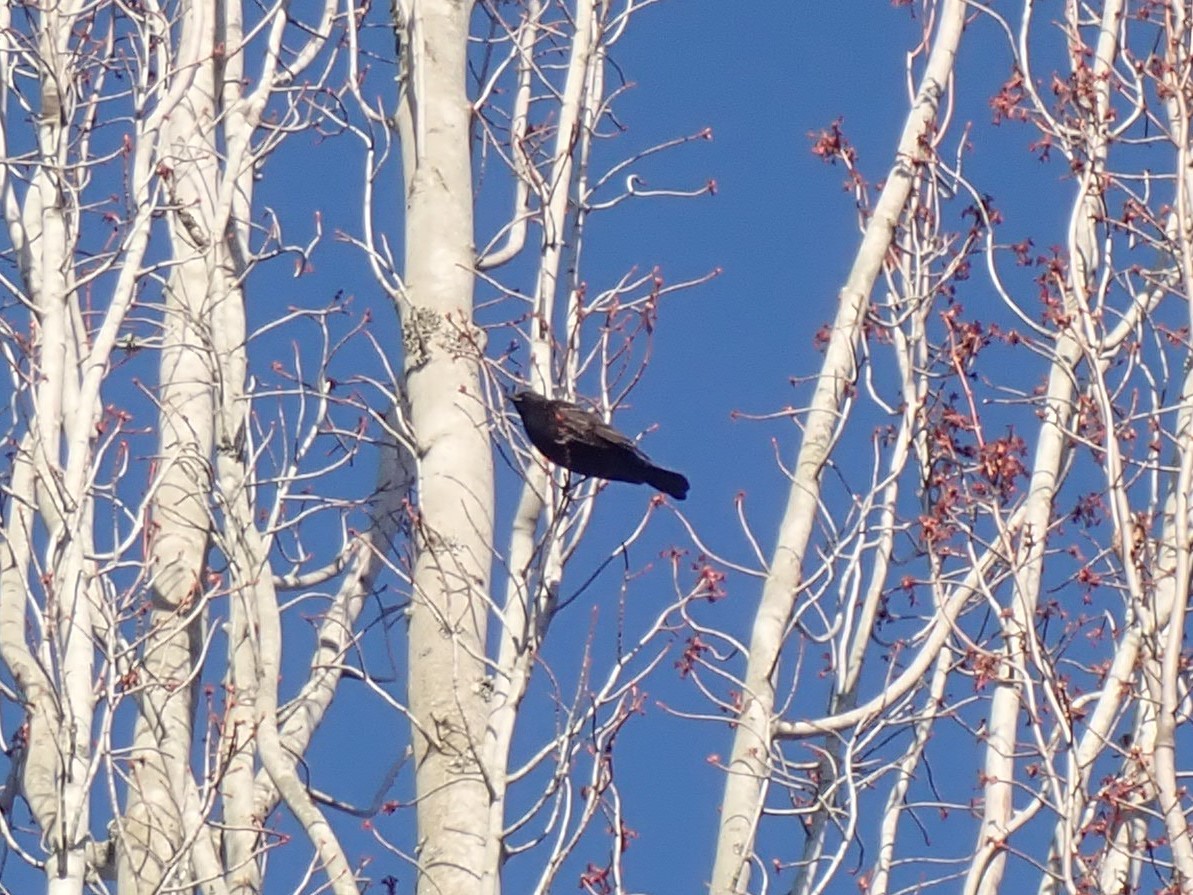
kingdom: Animalia
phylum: Chordata
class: Aves
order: Passeriformes
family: Icteridae
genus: Agelaius
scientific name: Agelaius phoeniceus
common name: Red-winged blackbird
